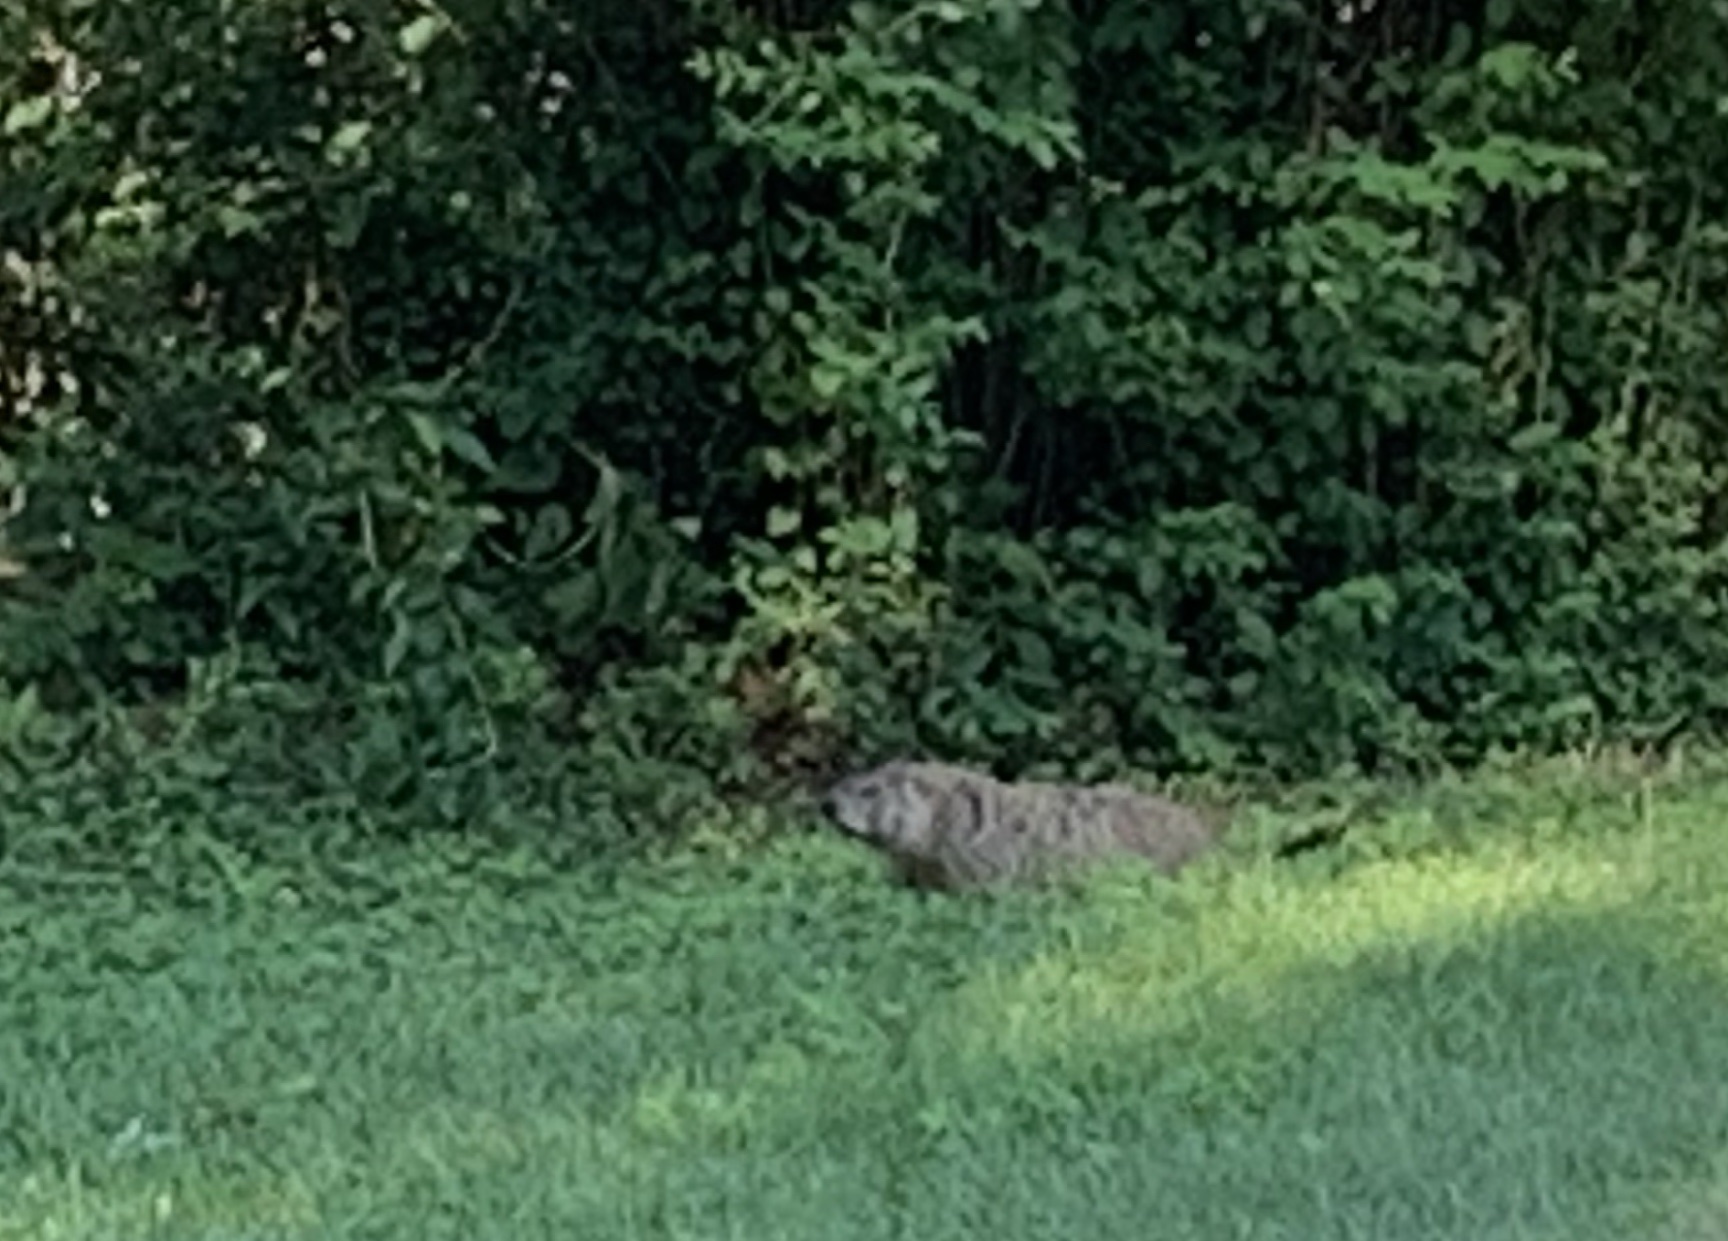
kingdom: Animalia
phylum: Chordata
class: Mammalia
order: Rodentia
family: Sciuridae
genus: Marmota
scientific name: Marmota monax
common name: Groundhog
